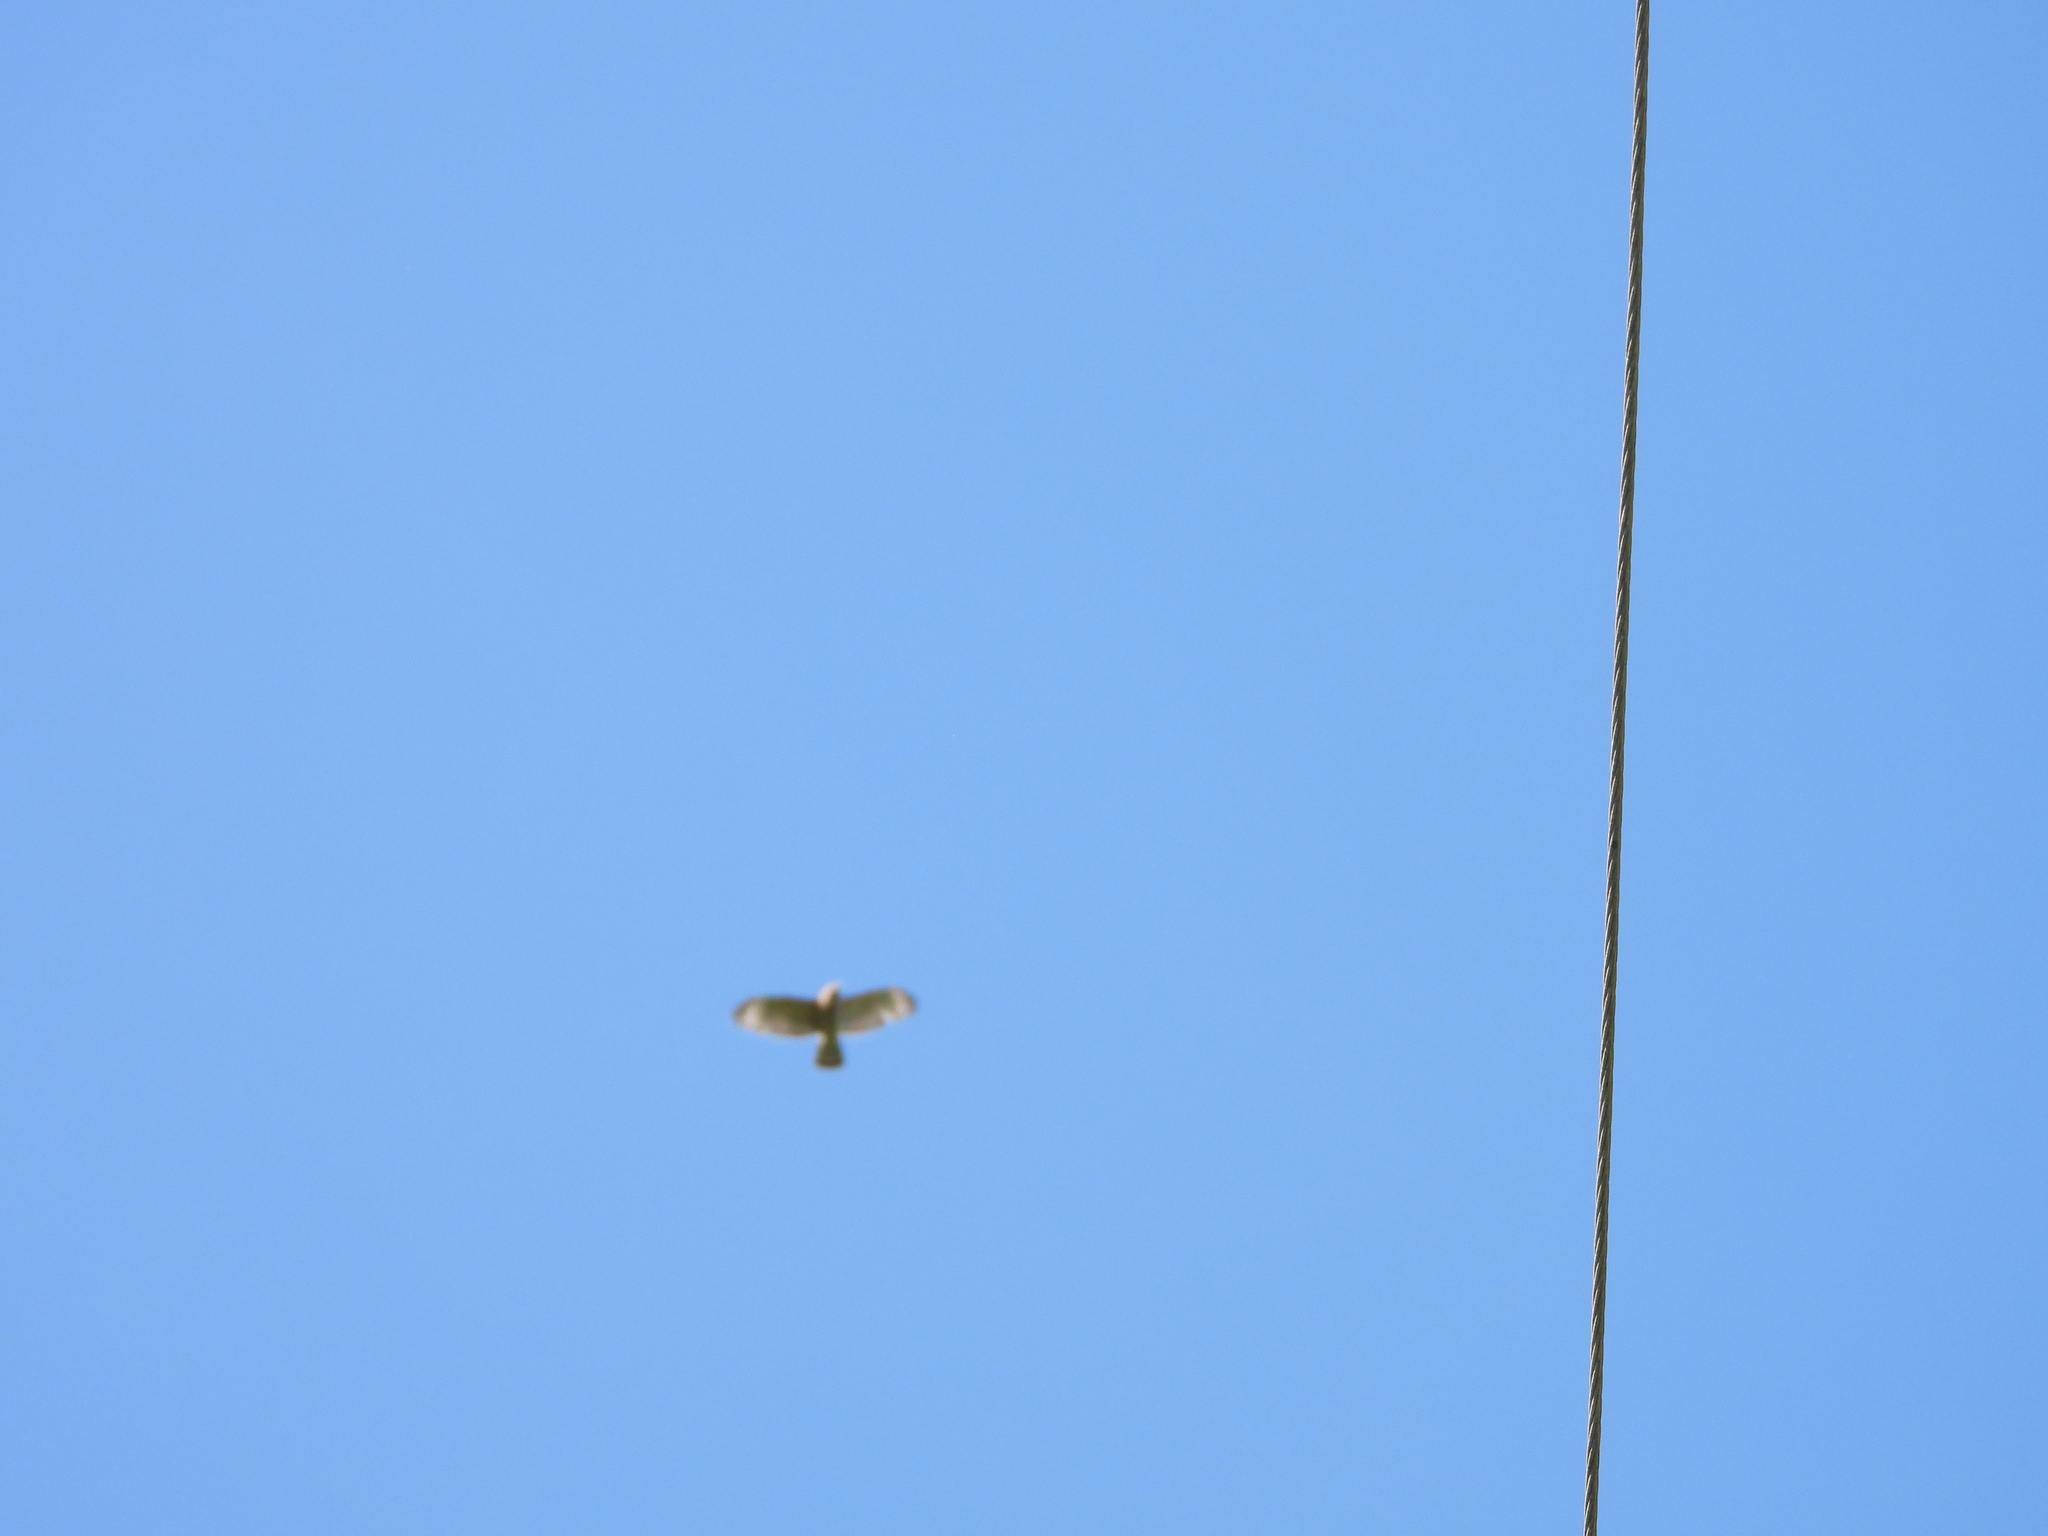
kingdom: Animalia
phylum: Chordata
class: Aves
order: Accipitriformes
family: Accipitridae
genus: Buteo
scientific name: Buteo lineatus
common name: Red-shouldered hawk
